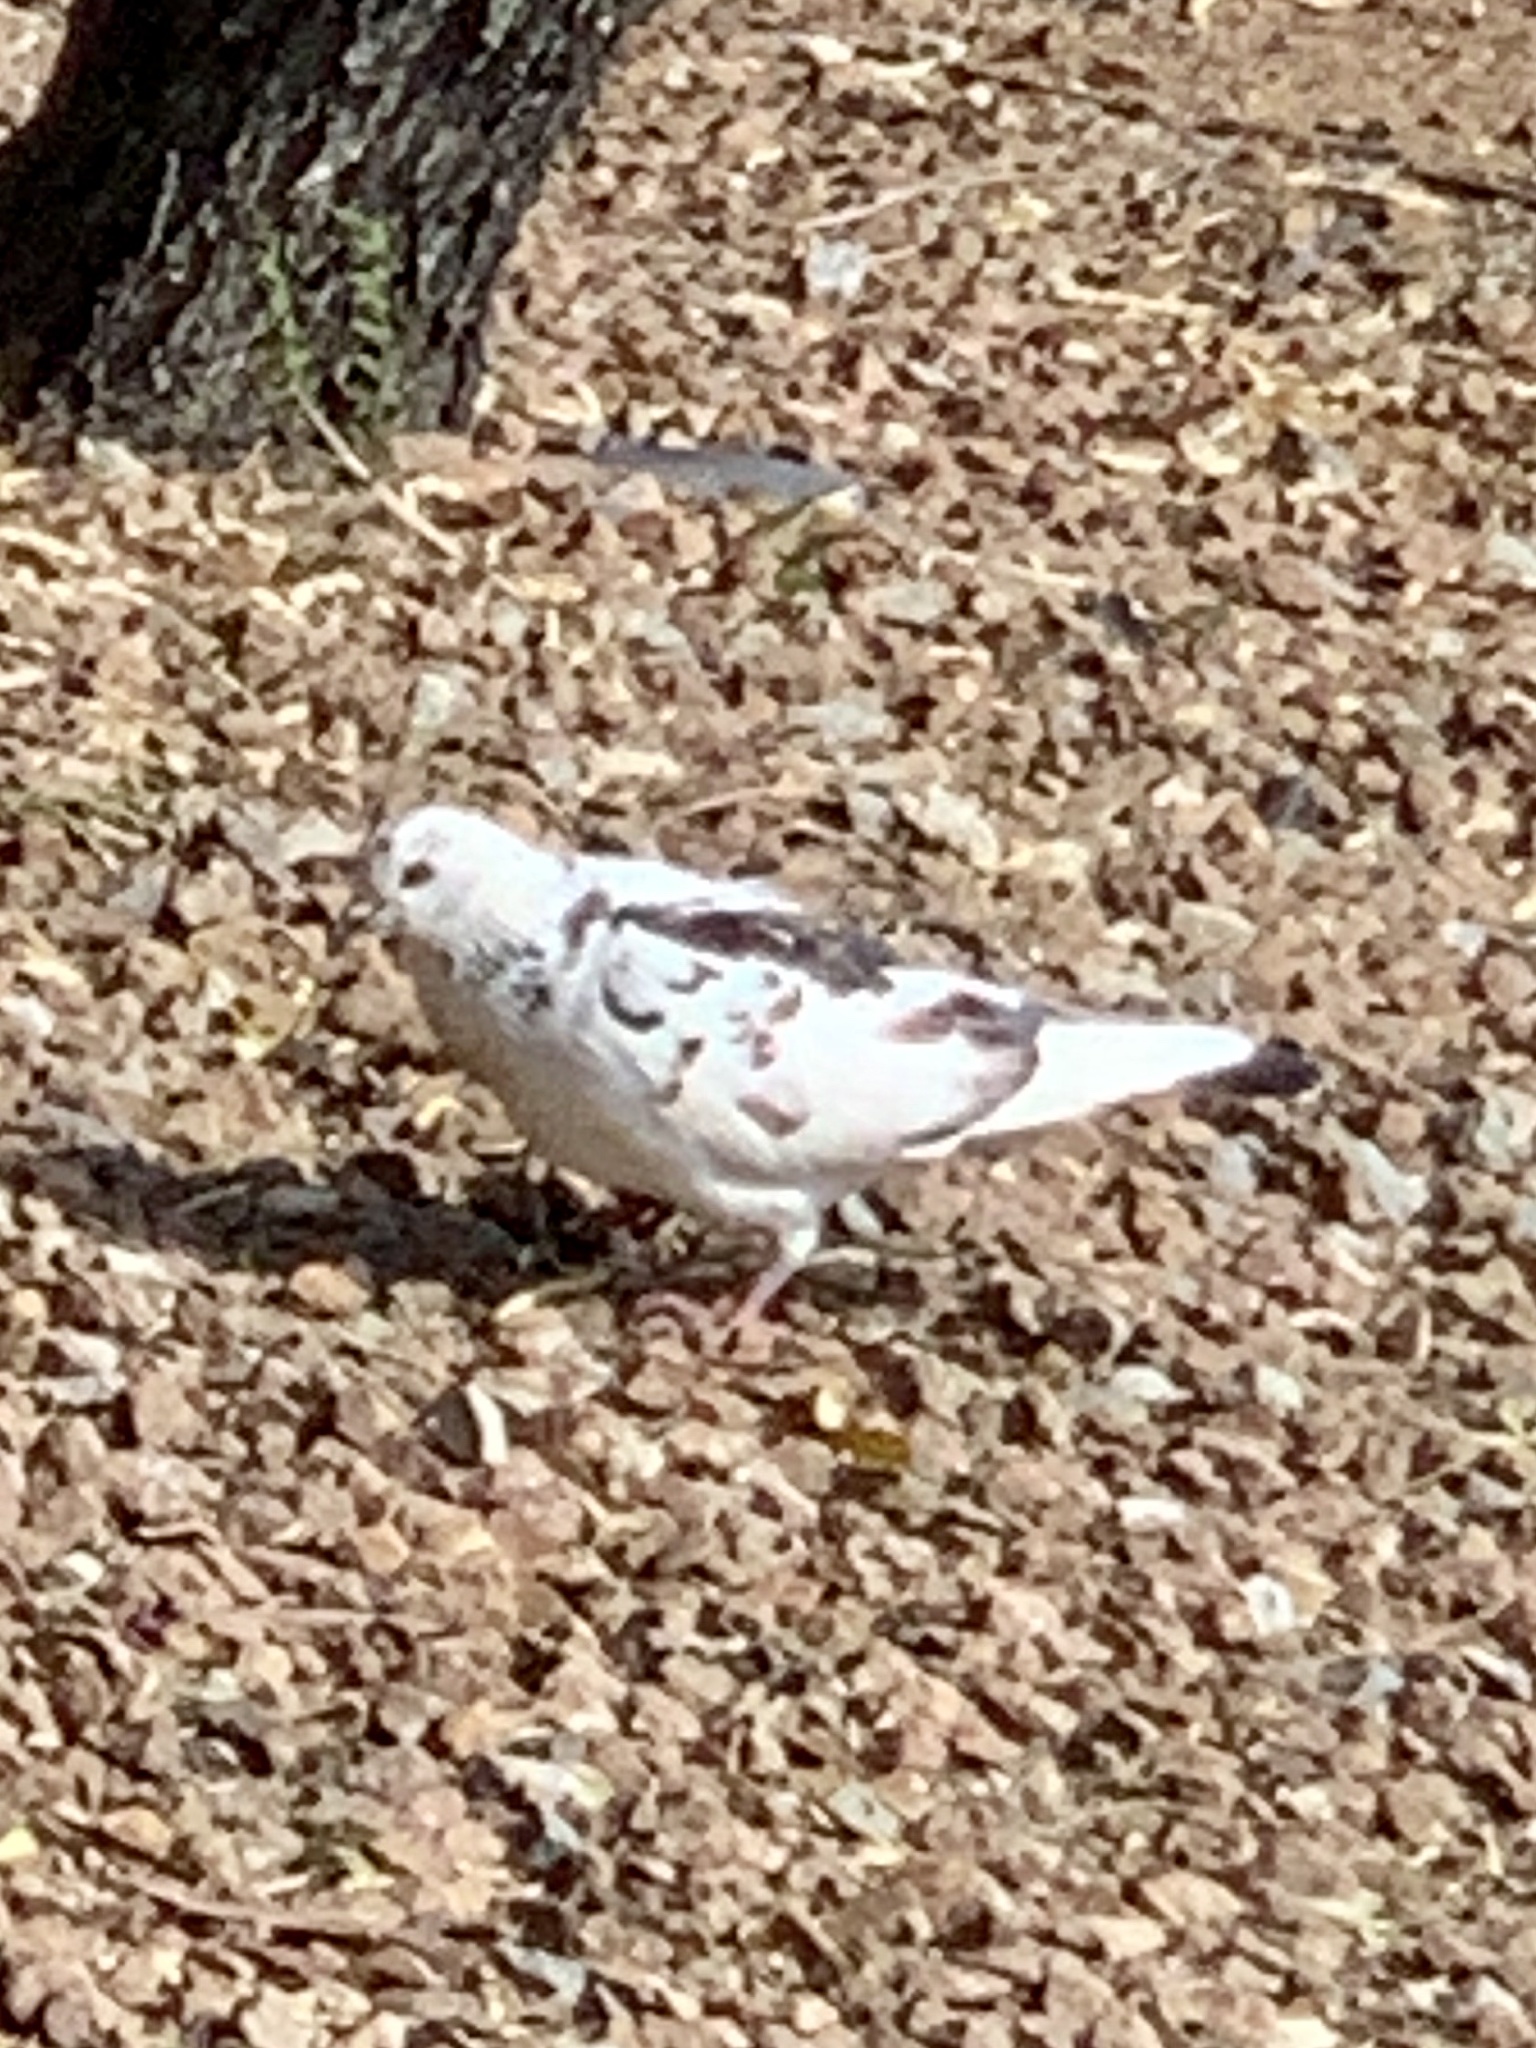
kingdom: Animalia
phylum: Chordata
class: Aves
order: Columbiformes
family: Columbidae
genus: Columba
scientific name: Columba livia
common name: Rock pigeon
